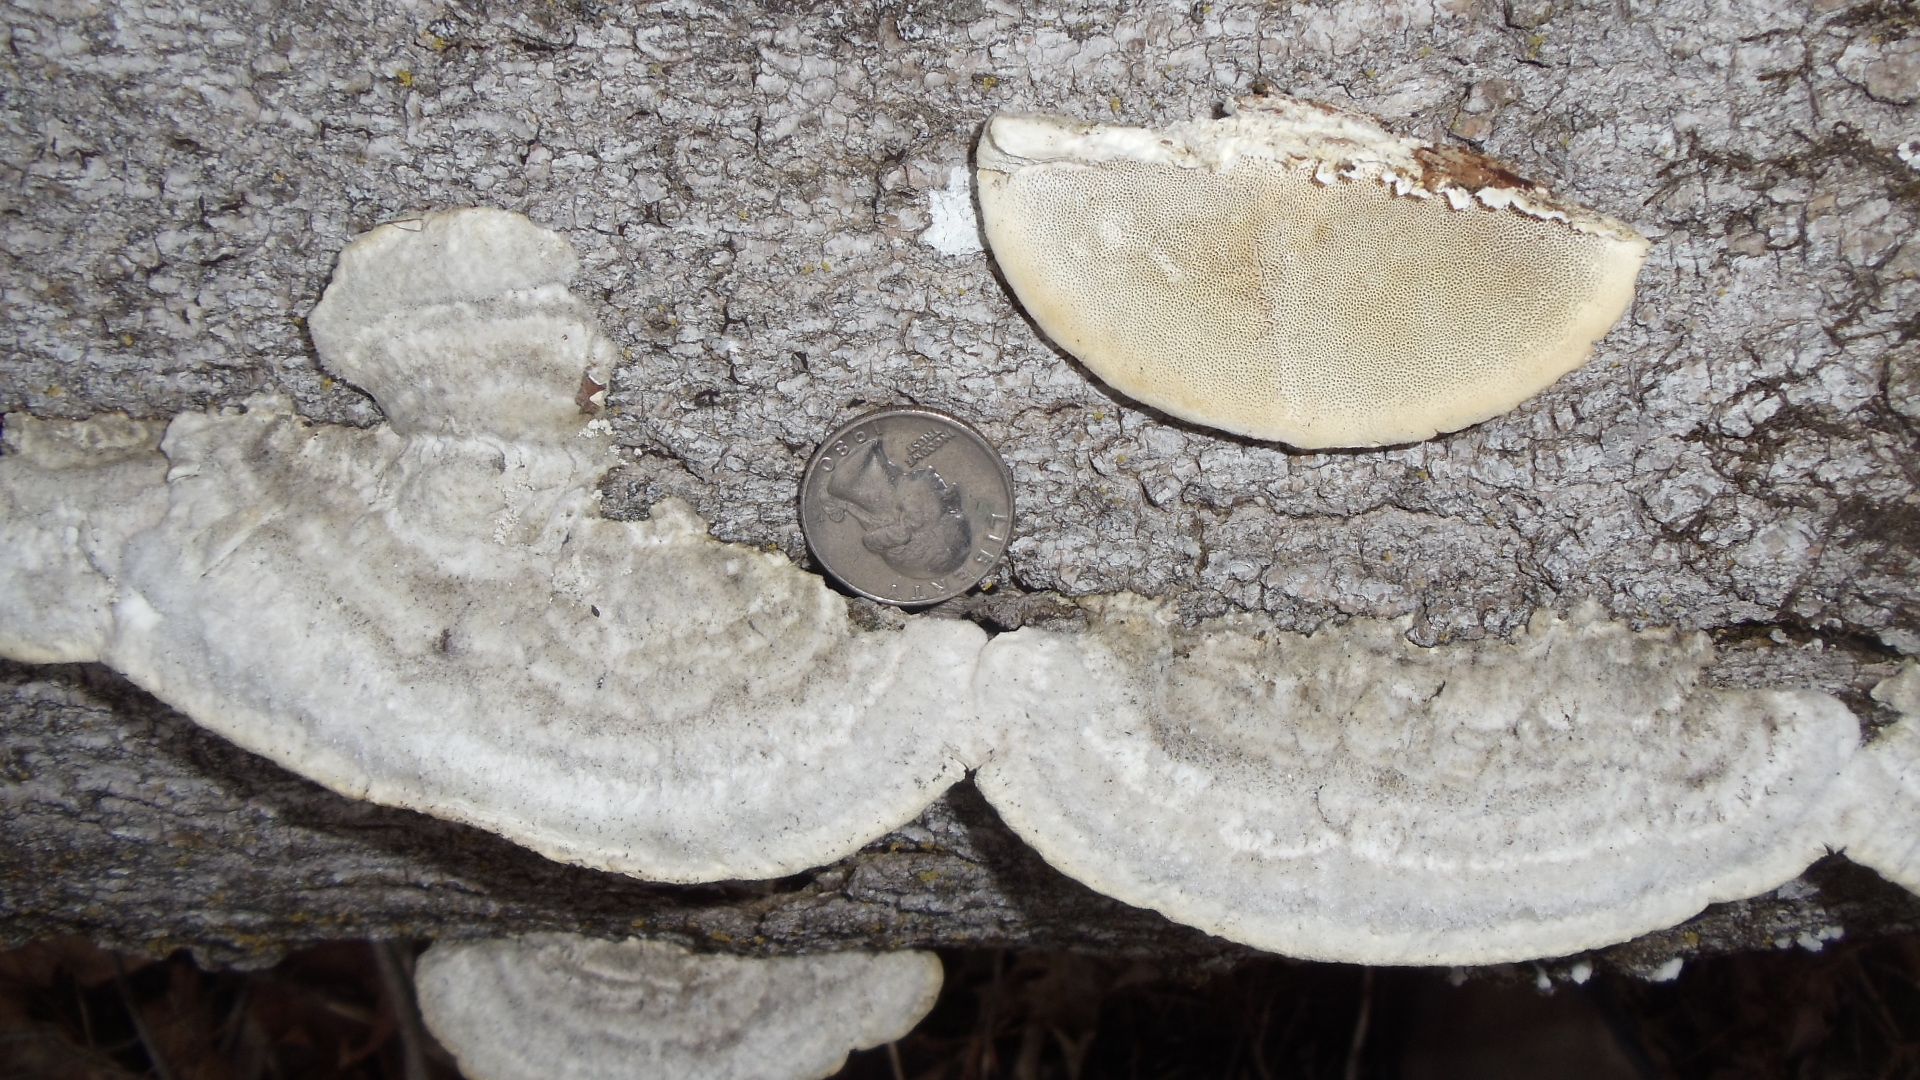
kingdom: Fungi
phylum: Basidiomycota
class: Agaricomycetes
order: Polyporales
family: Polyporaceae
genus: Trametes
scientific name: Trametes hirsuta
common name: Hairy bracket
